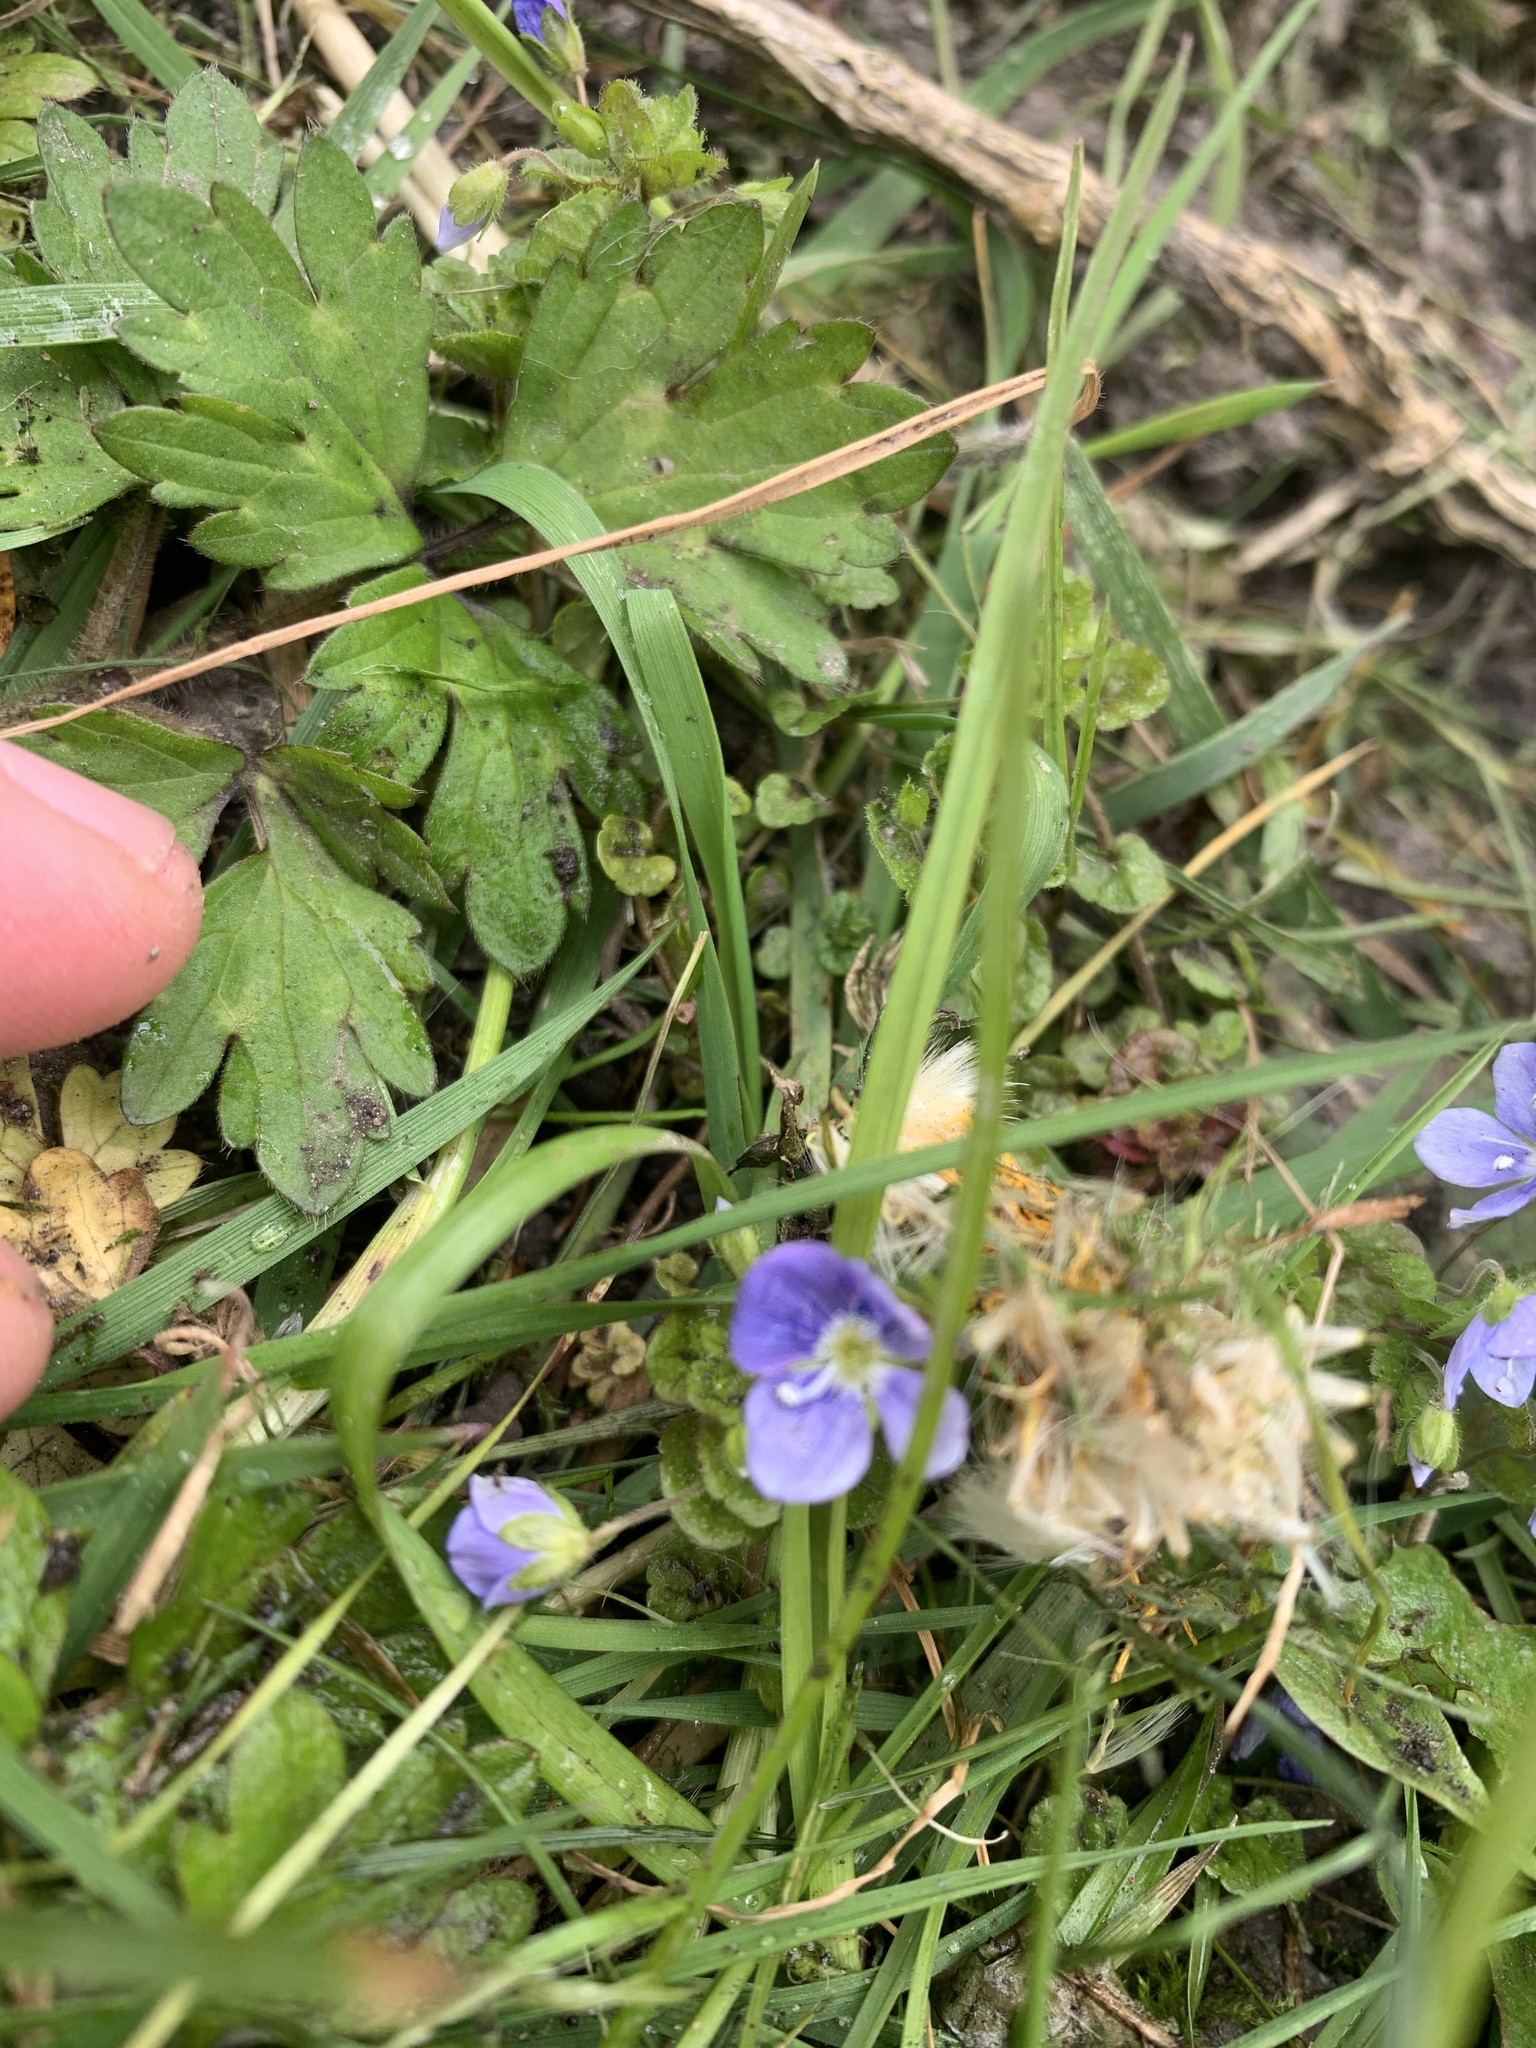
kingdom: Plantae
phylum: Tracheophyta
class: Magnoliopsida
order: Lamiales
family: Plantaginaceae
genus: Veronica
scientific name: Veronica filiformis
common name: Slender speedwell
